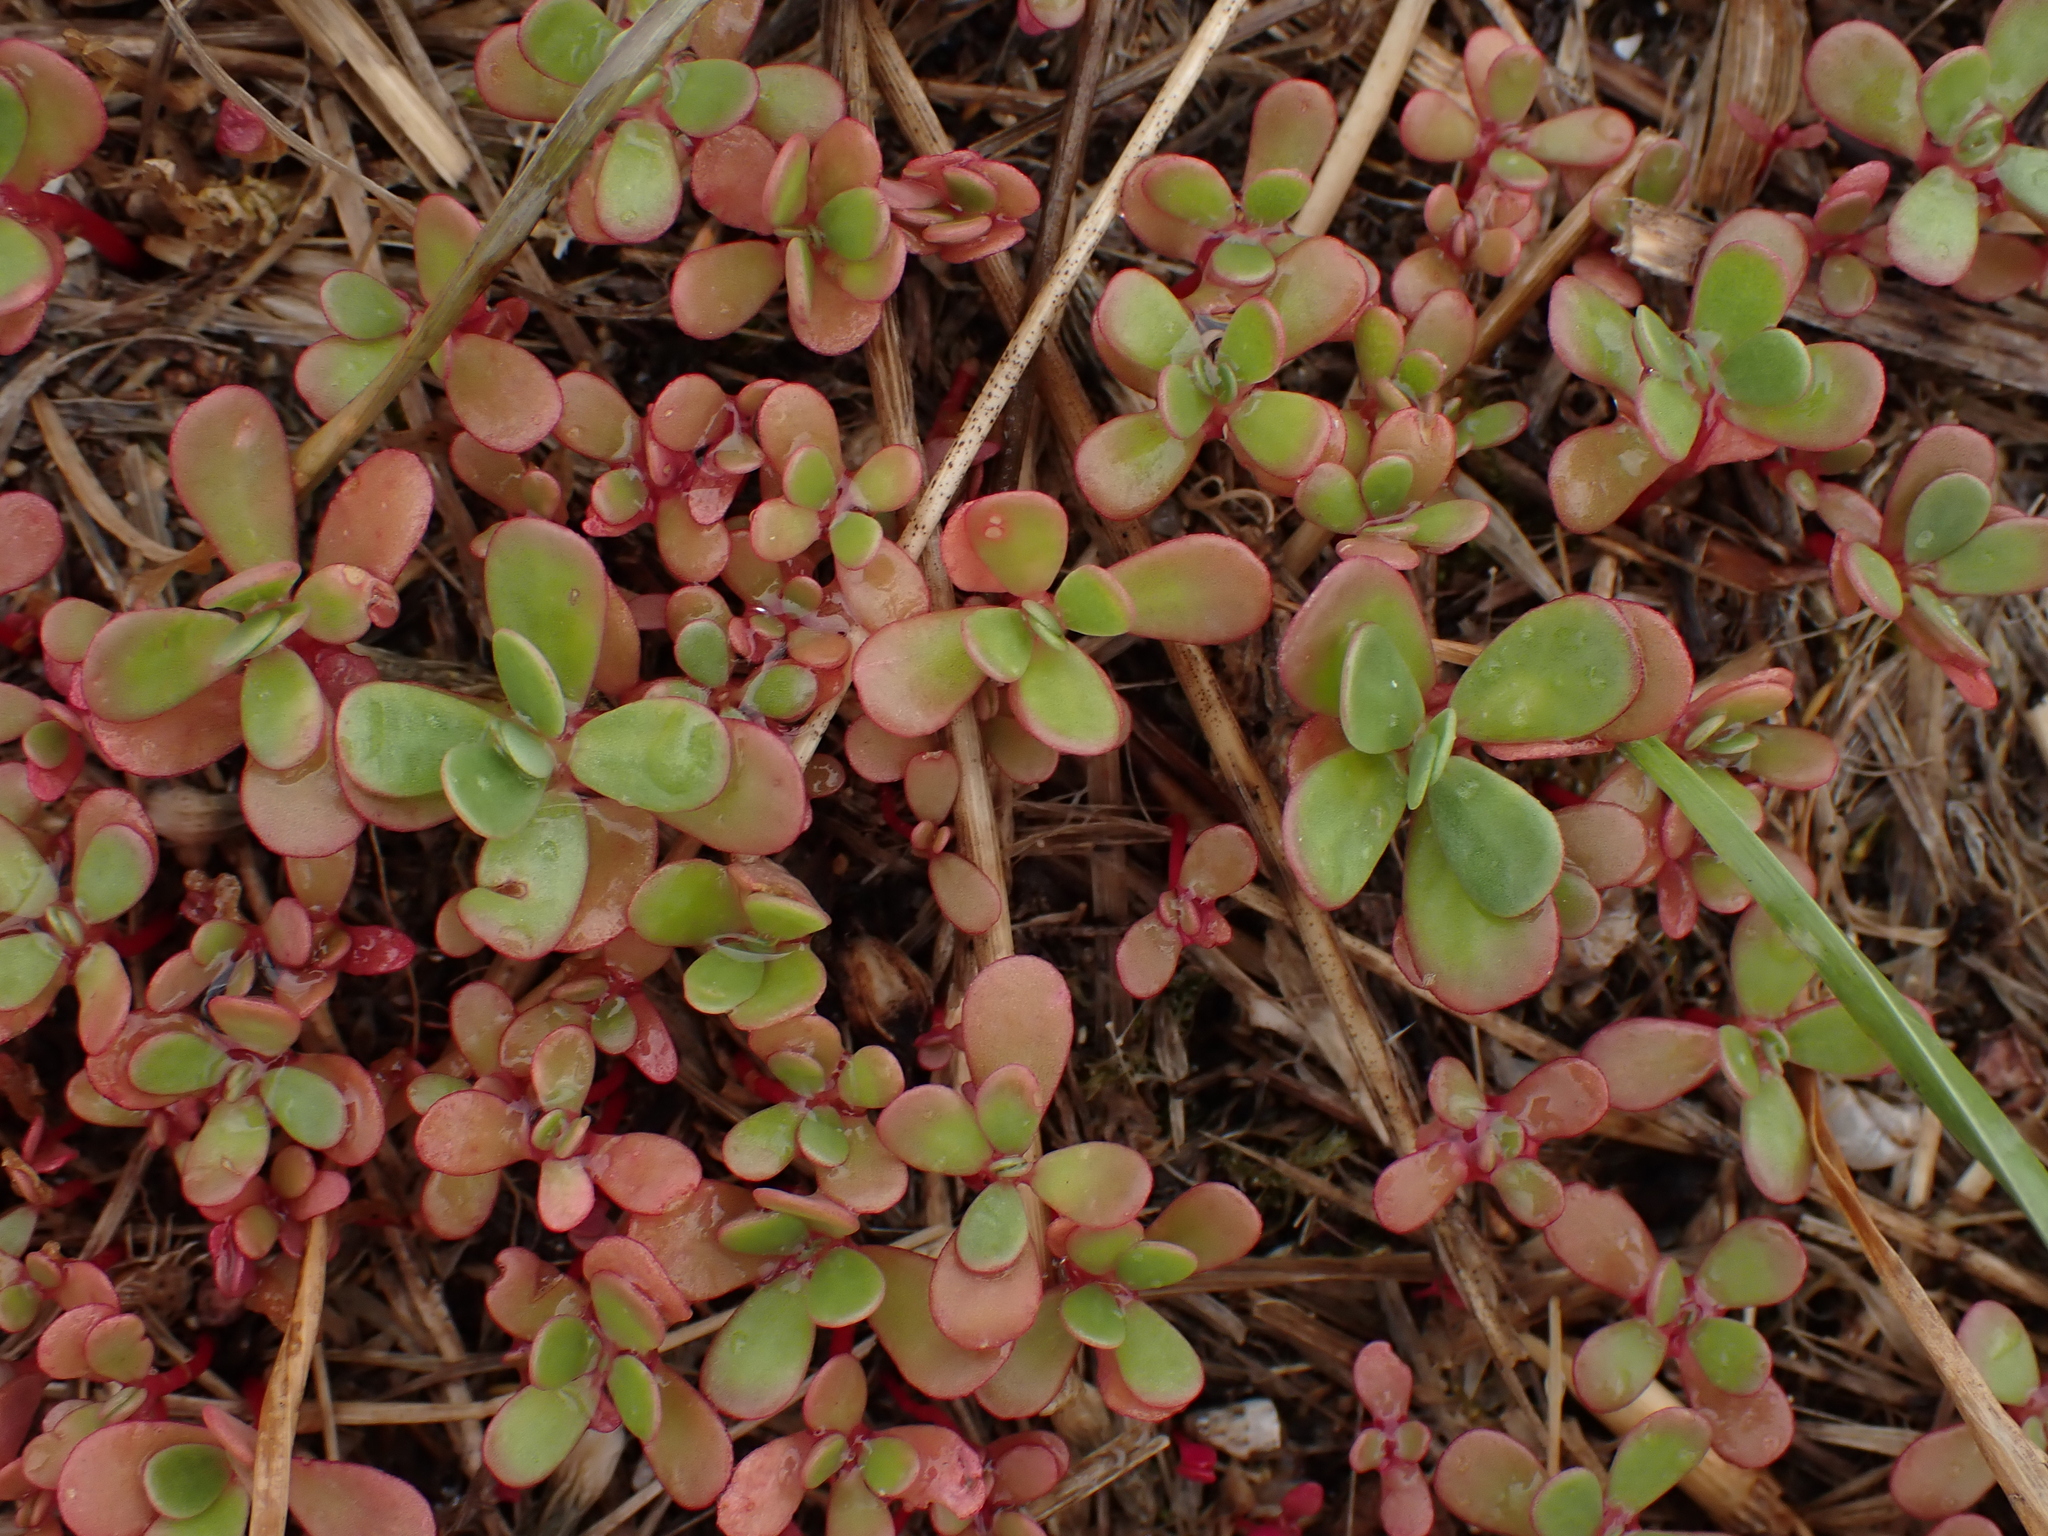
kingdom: Plantae
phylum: Tracheophyta
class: Magnoliopsida
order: Caryophyllales
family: Portulacaceae
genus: Portulaca
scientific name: Portulaca oleracea
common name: Common purslane
